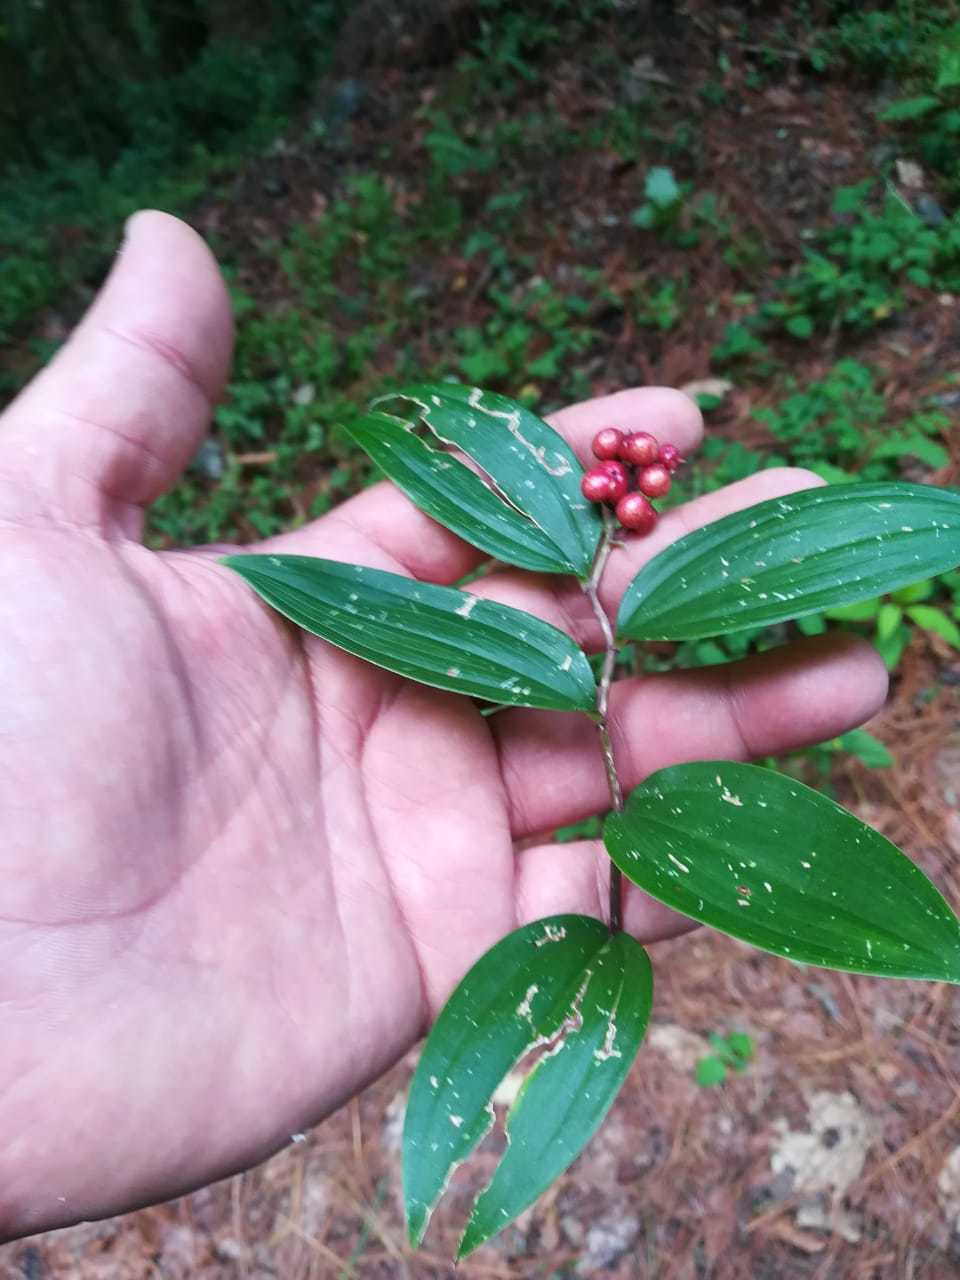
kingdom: Plantae
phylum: Tracheophyta
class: Liliopsida
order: Asparagales
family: Asparagaceae
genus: Maianthemum
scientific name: Maianthemum amoenum
